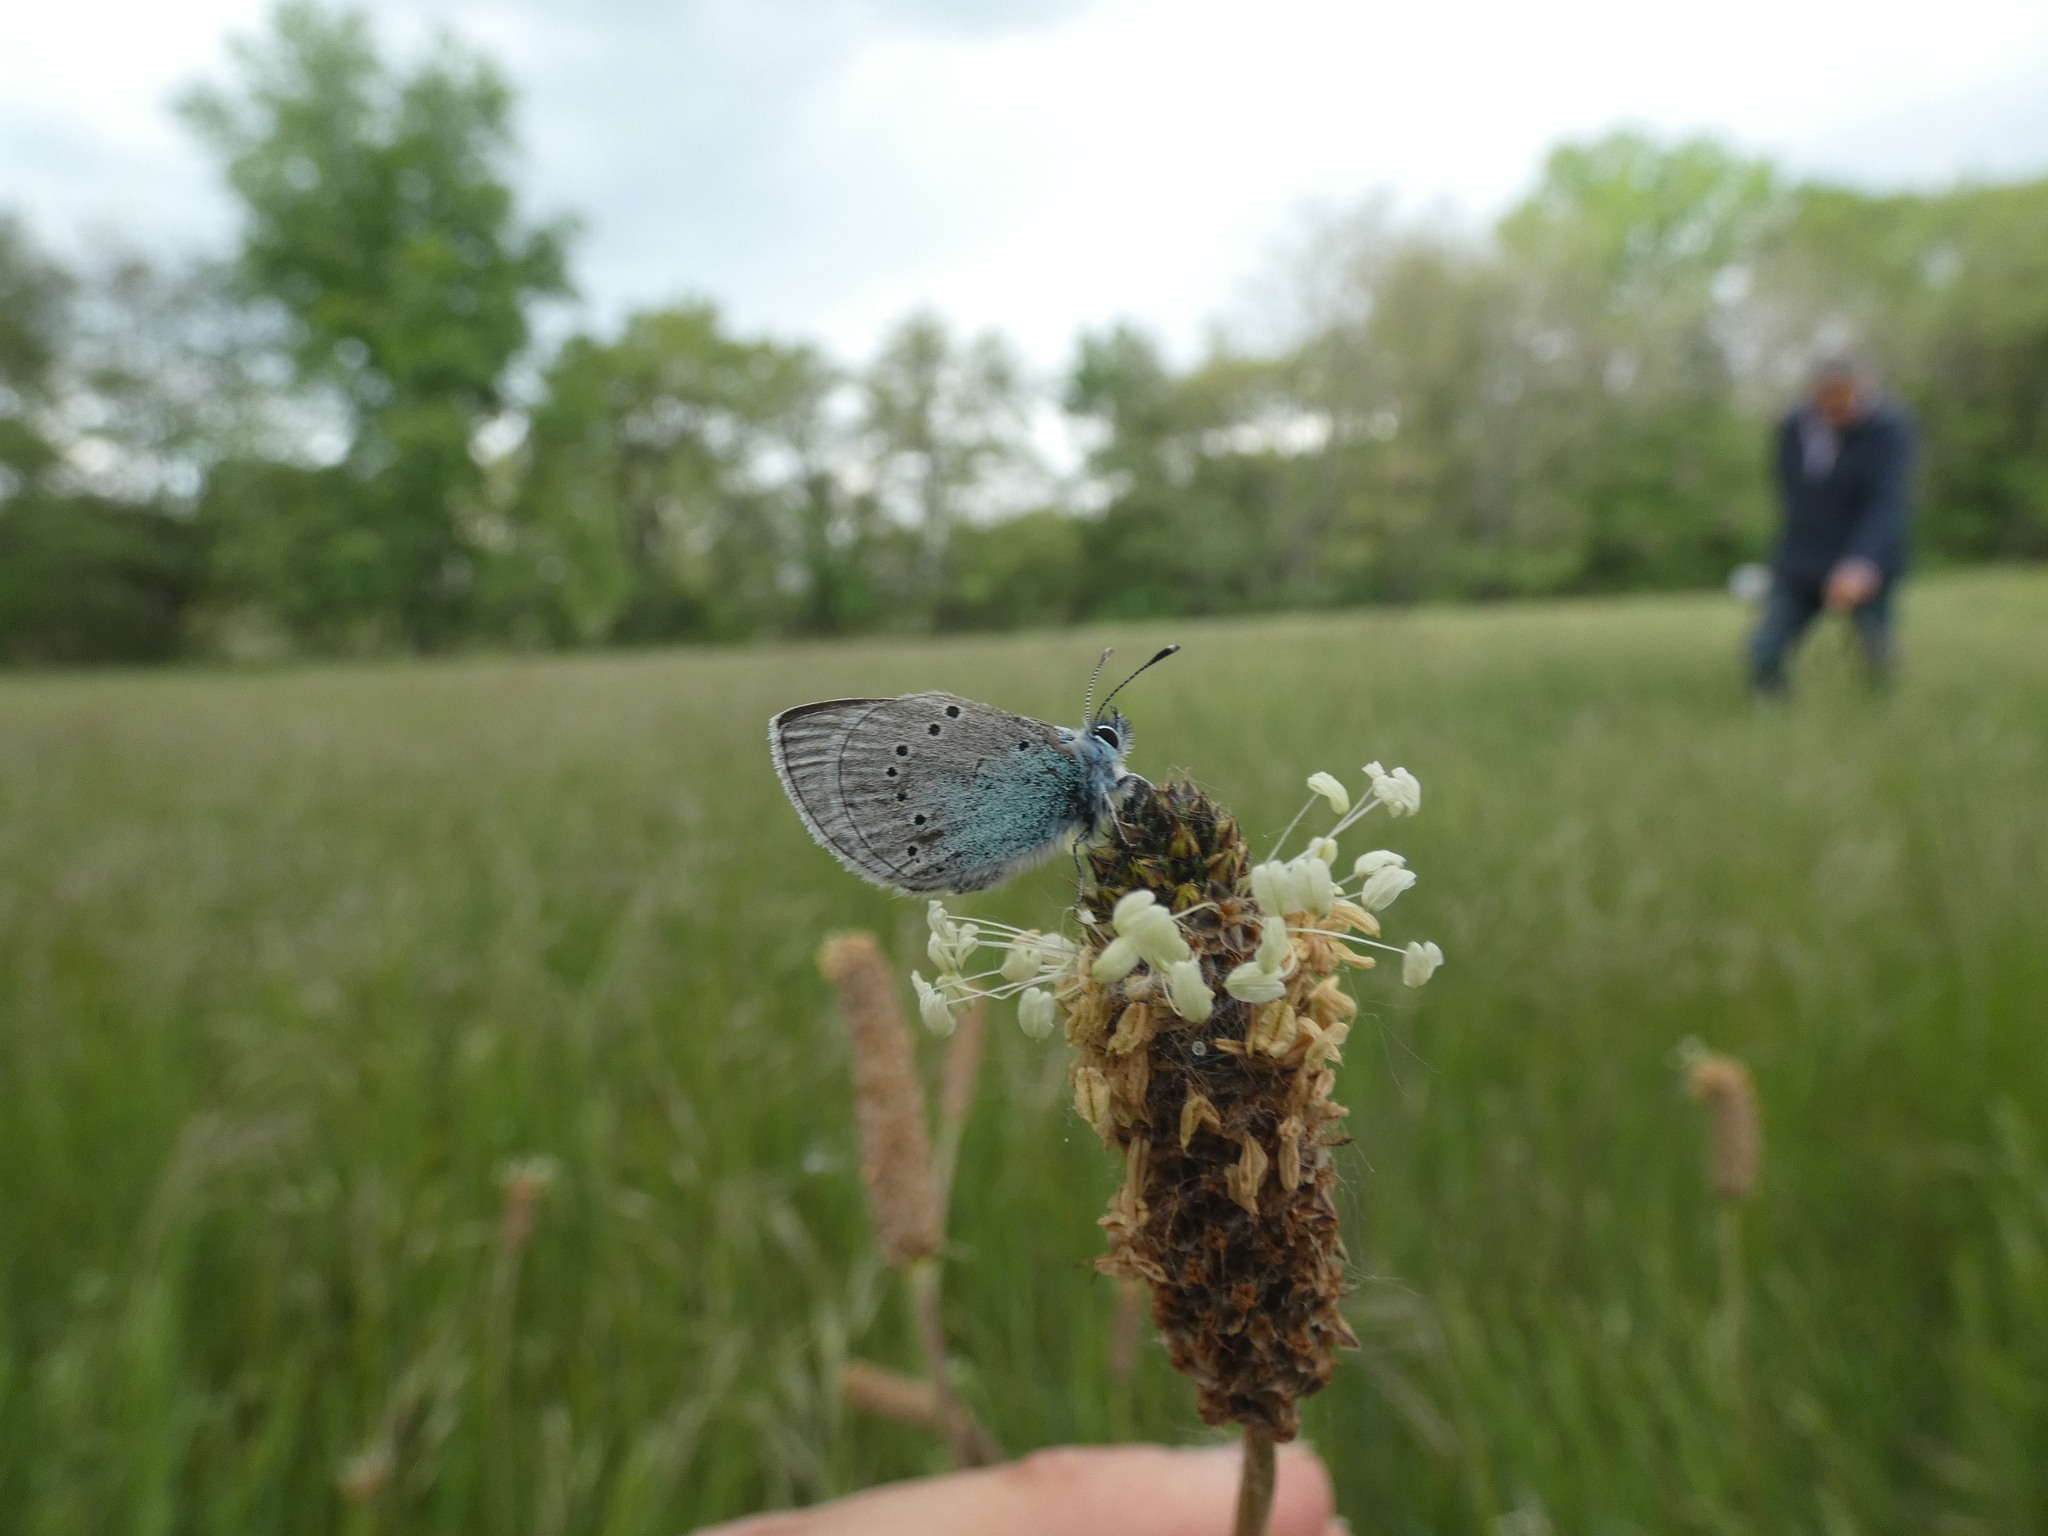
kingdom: Animalia
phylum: Arthropoda
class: Insecta
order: Lepidoptera
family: Lycaenidae
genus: Glaucopsyche
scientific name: Glaucopsyche alexis
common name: Green-underside blue
